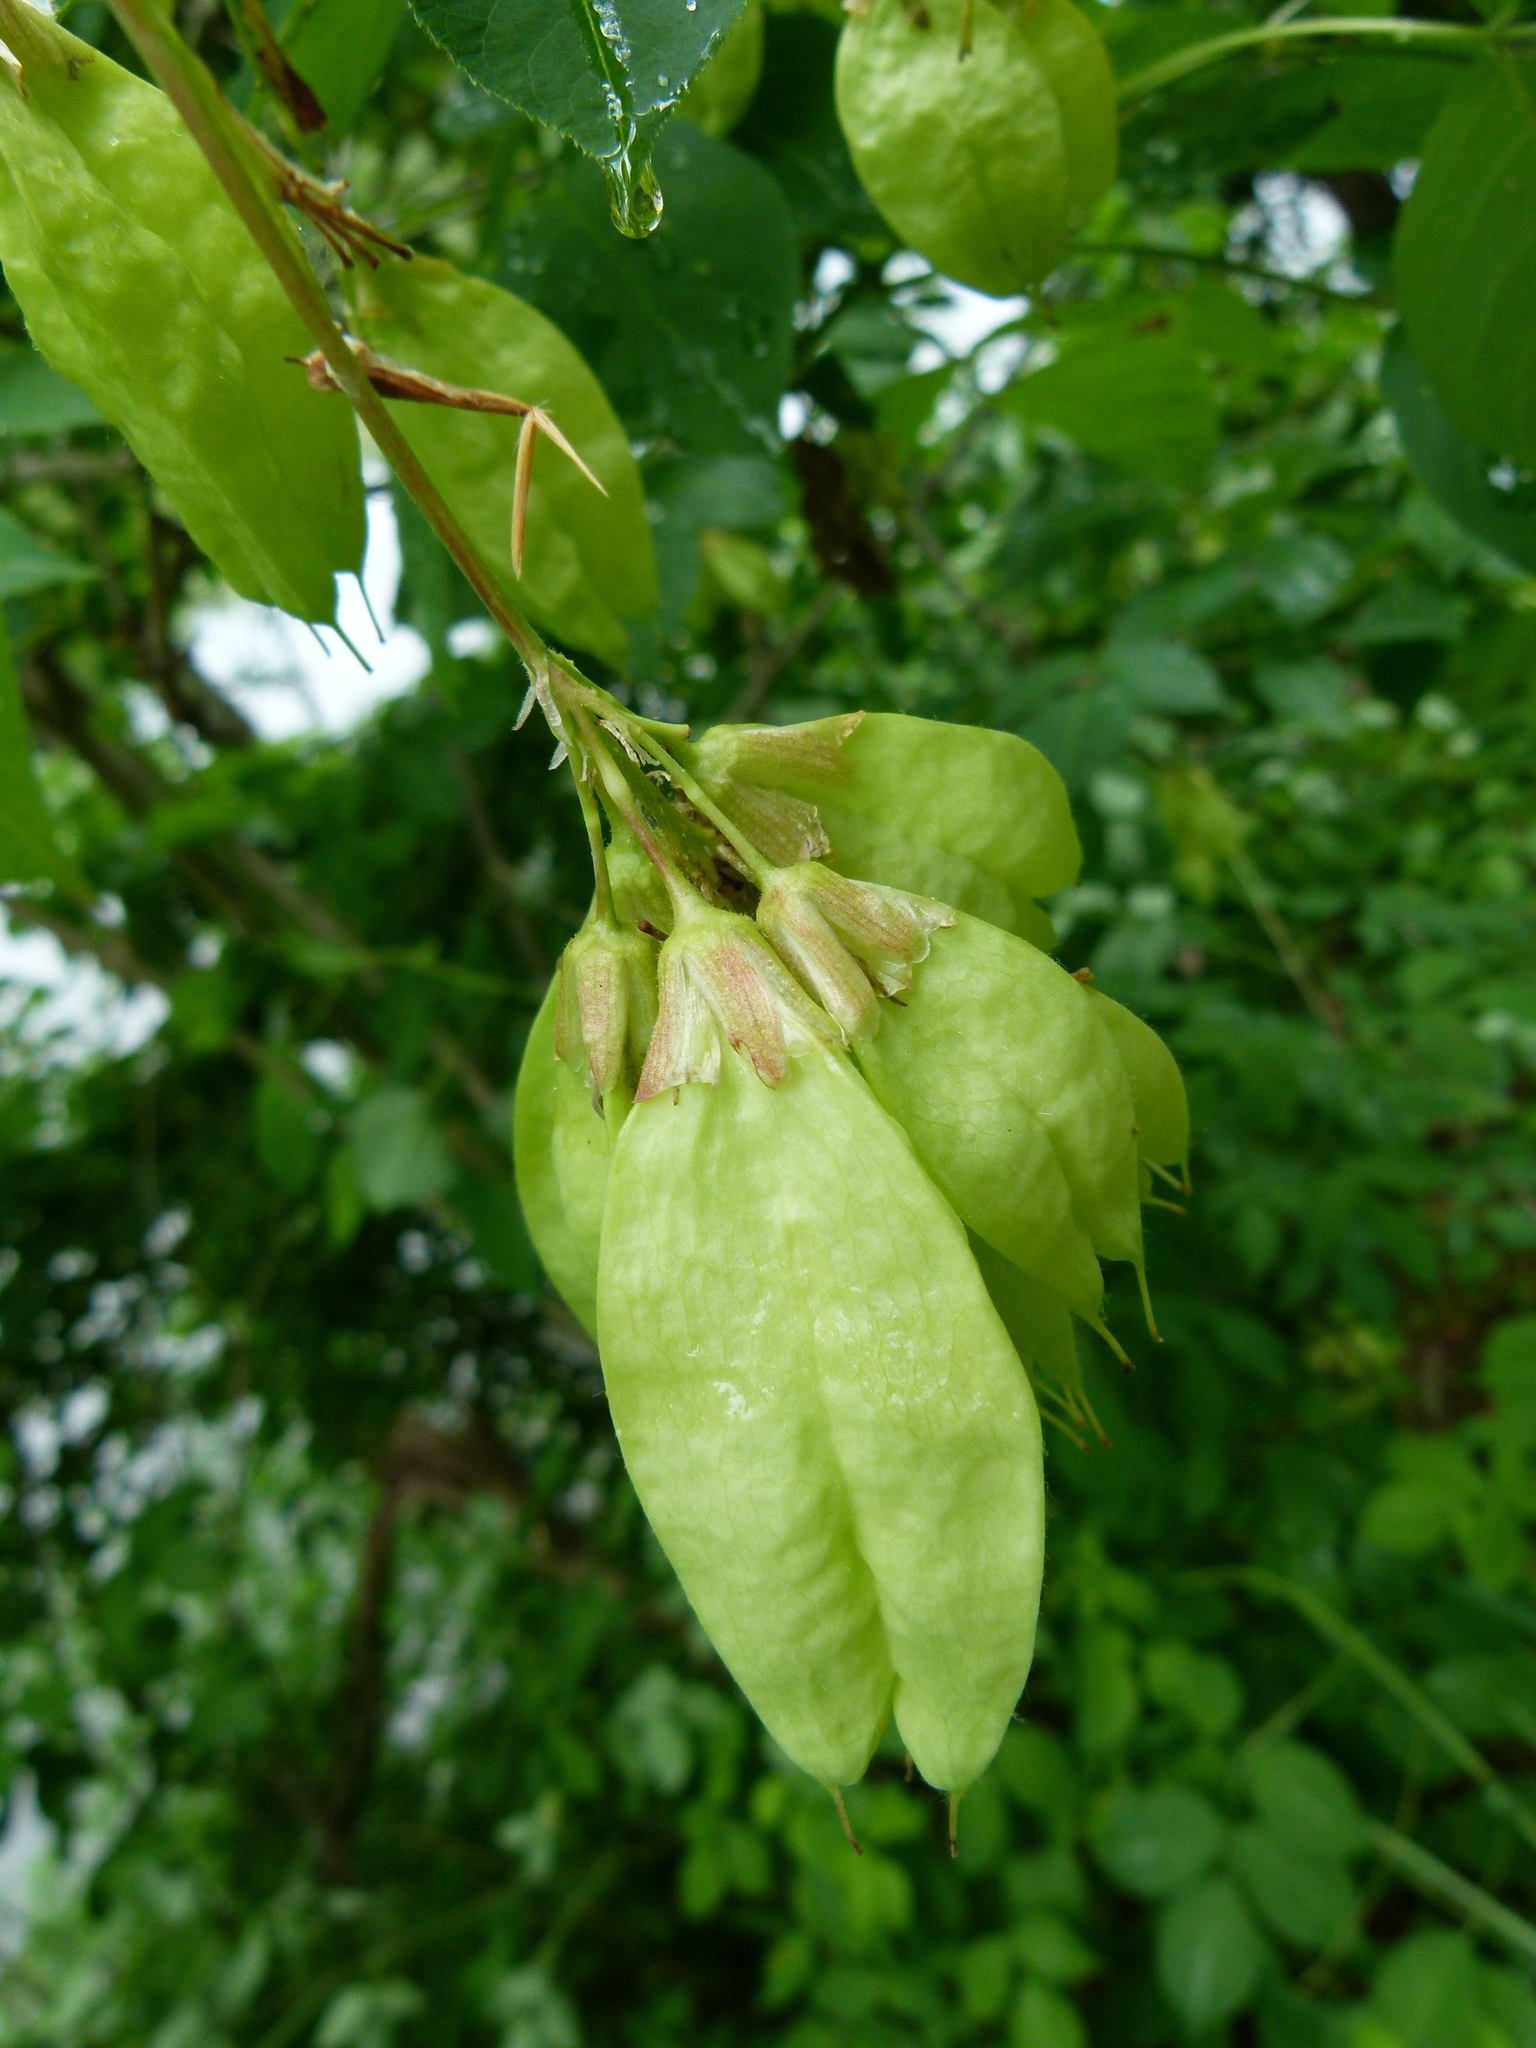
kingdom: Plantae
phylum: Tracheophyta
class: Magnoliopsida
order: Crossosomatales
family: Staphyleaceae
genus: Staphylea
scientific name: Staphylea trifolia
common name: American bladdernut
